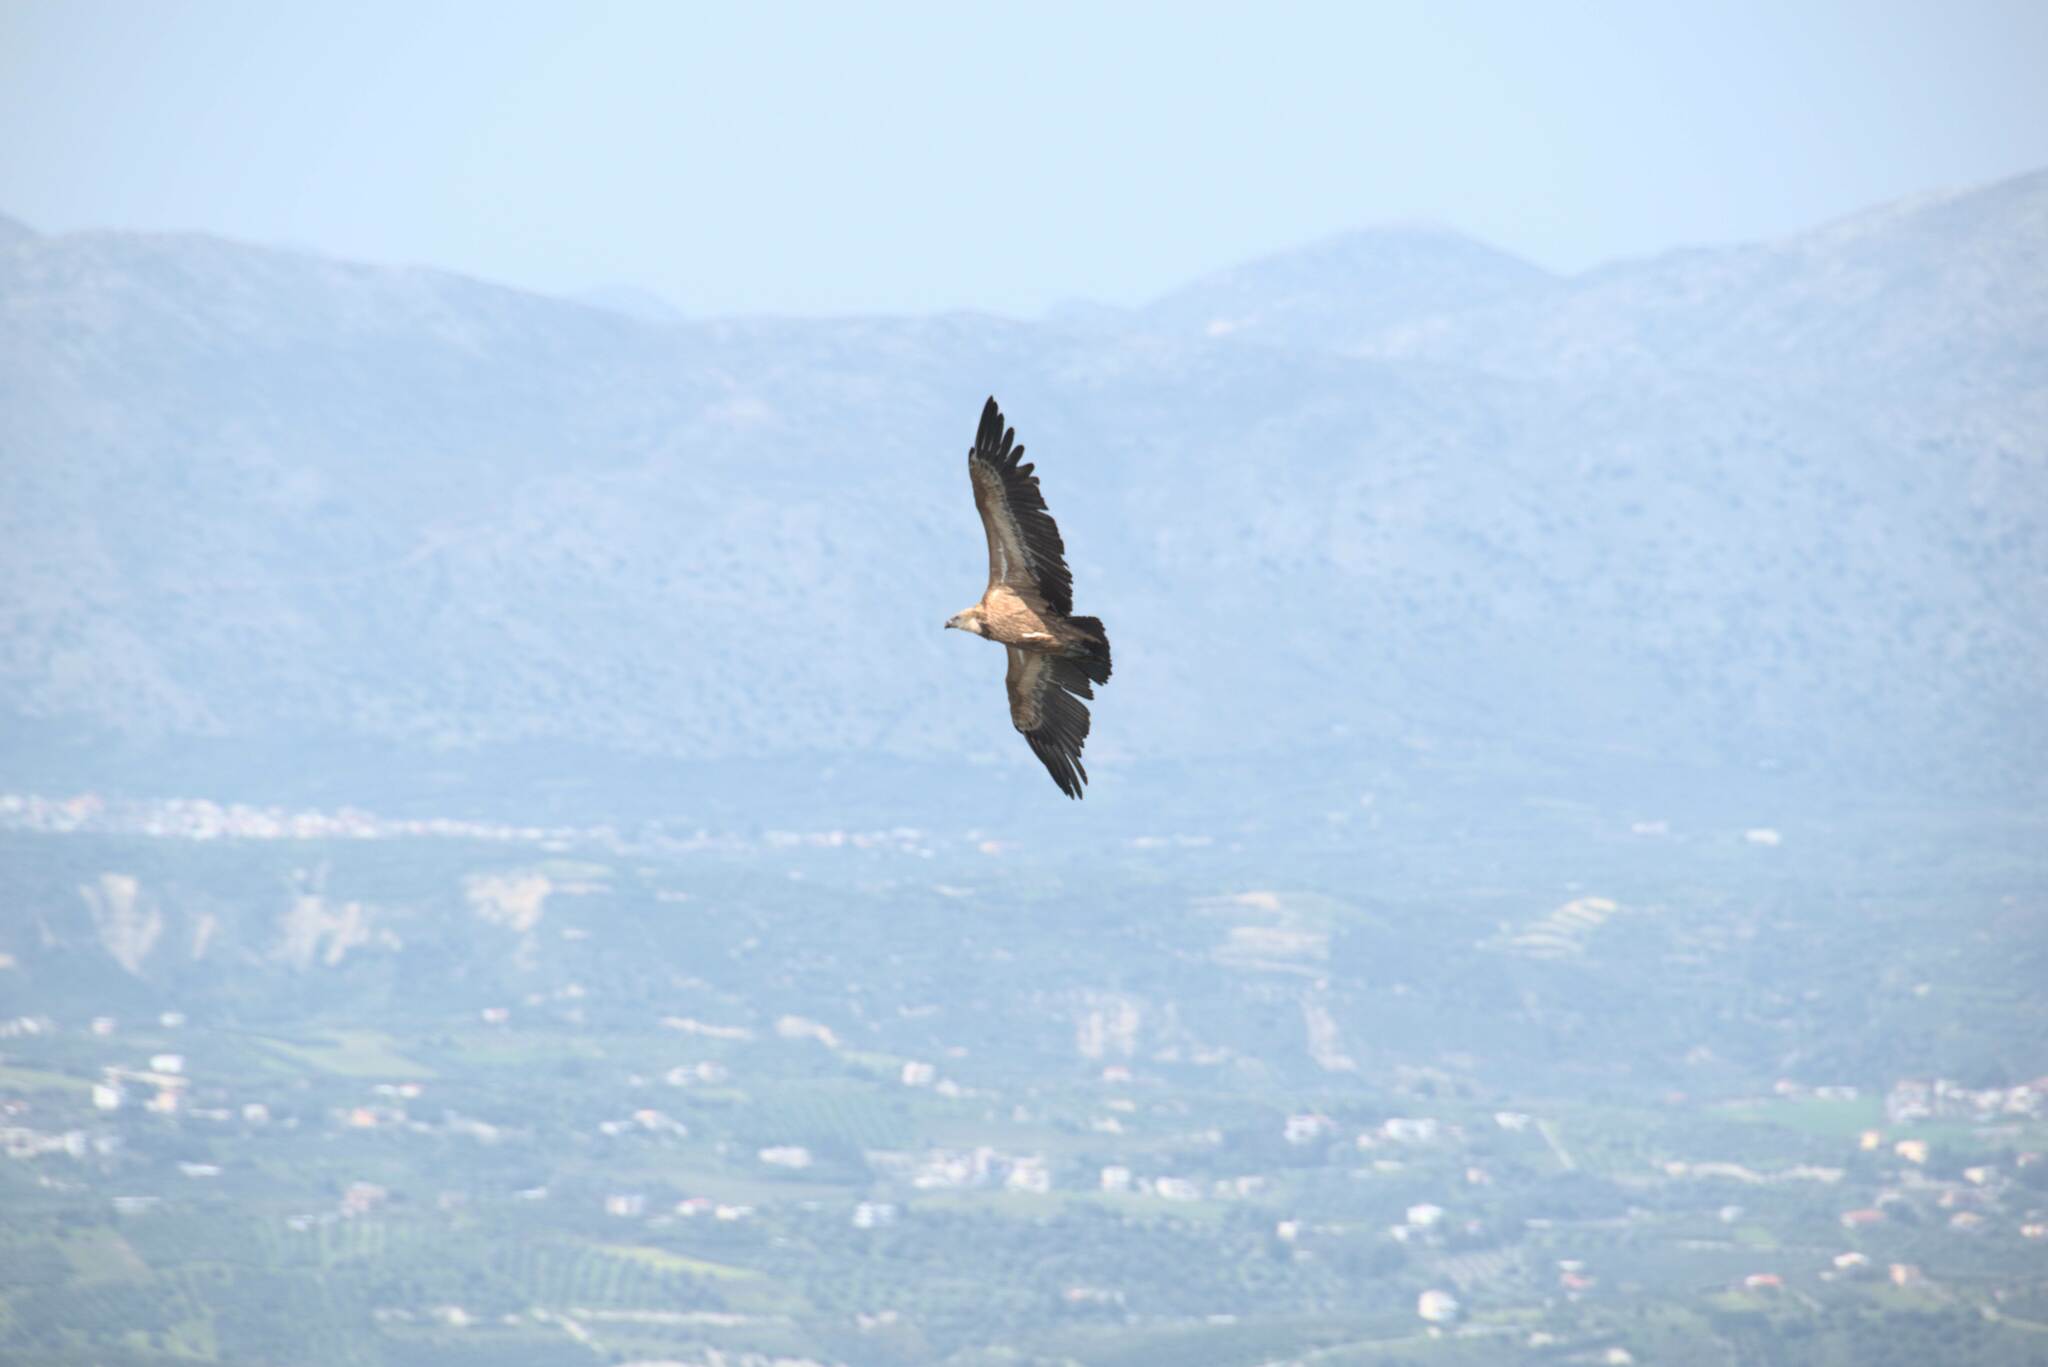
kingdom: Animalia
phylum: Chordata
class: Aves
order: Accipitriformes
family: Accipitridae
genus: Gyps
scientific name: Gyps fulvus
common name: Griffon vulture
